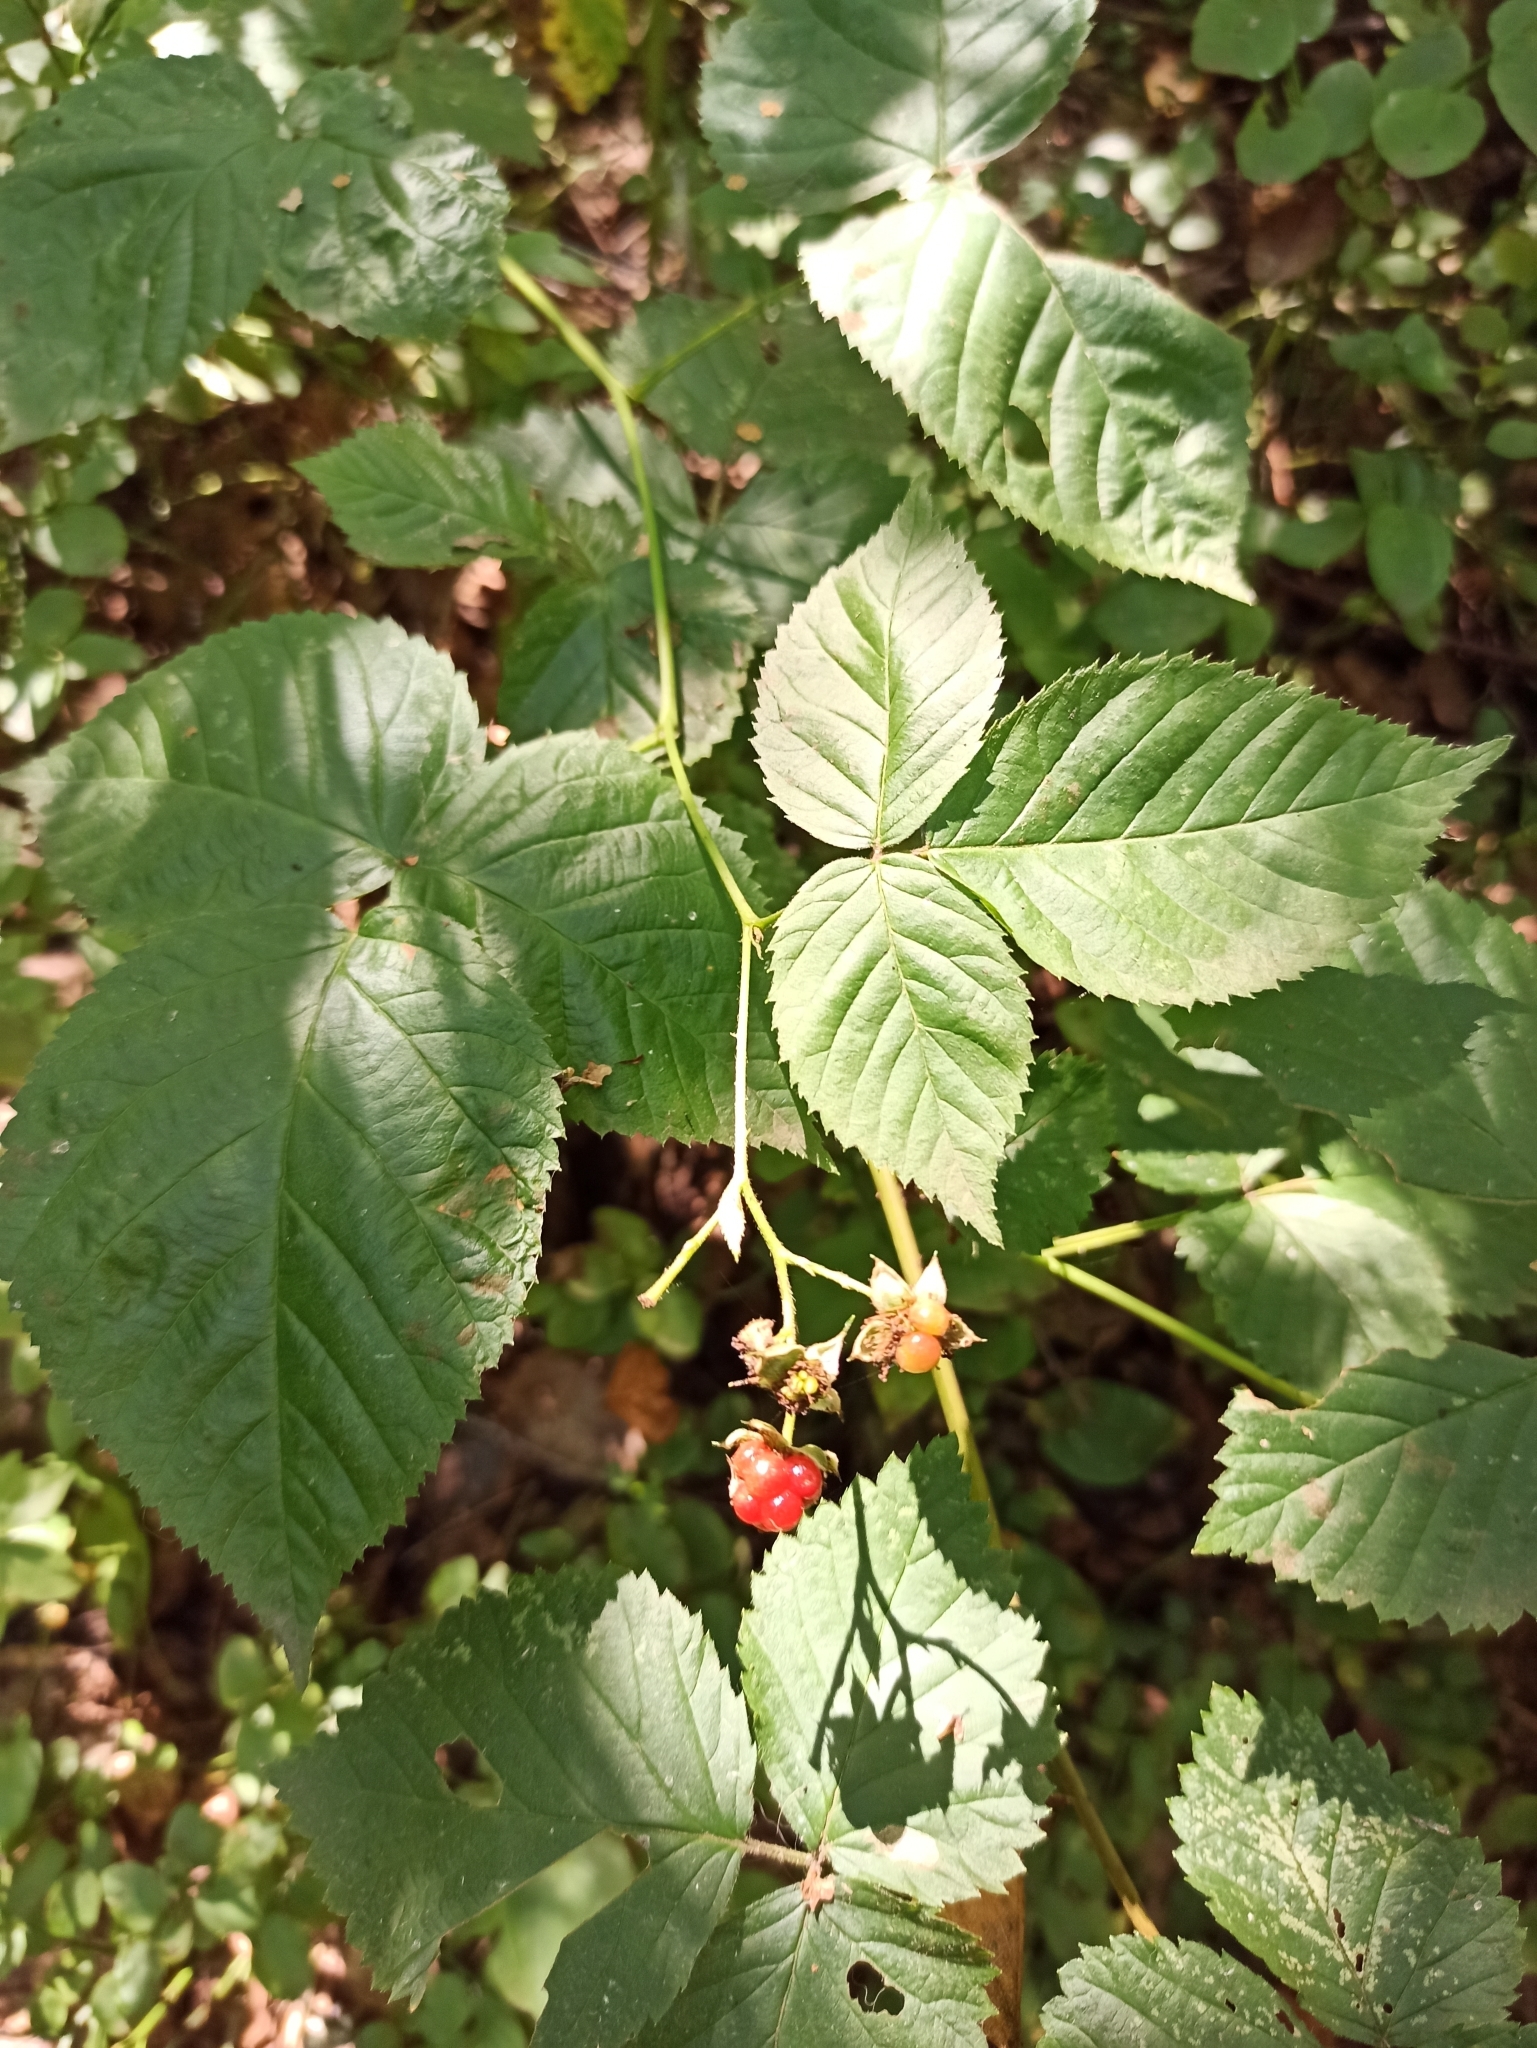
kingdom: Plantae
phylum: Tracheophyta
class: Magnoliopsida
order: Rosales
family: Rosaceae
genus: Rubus
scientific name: Rubus idaeus
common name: Raspberry
